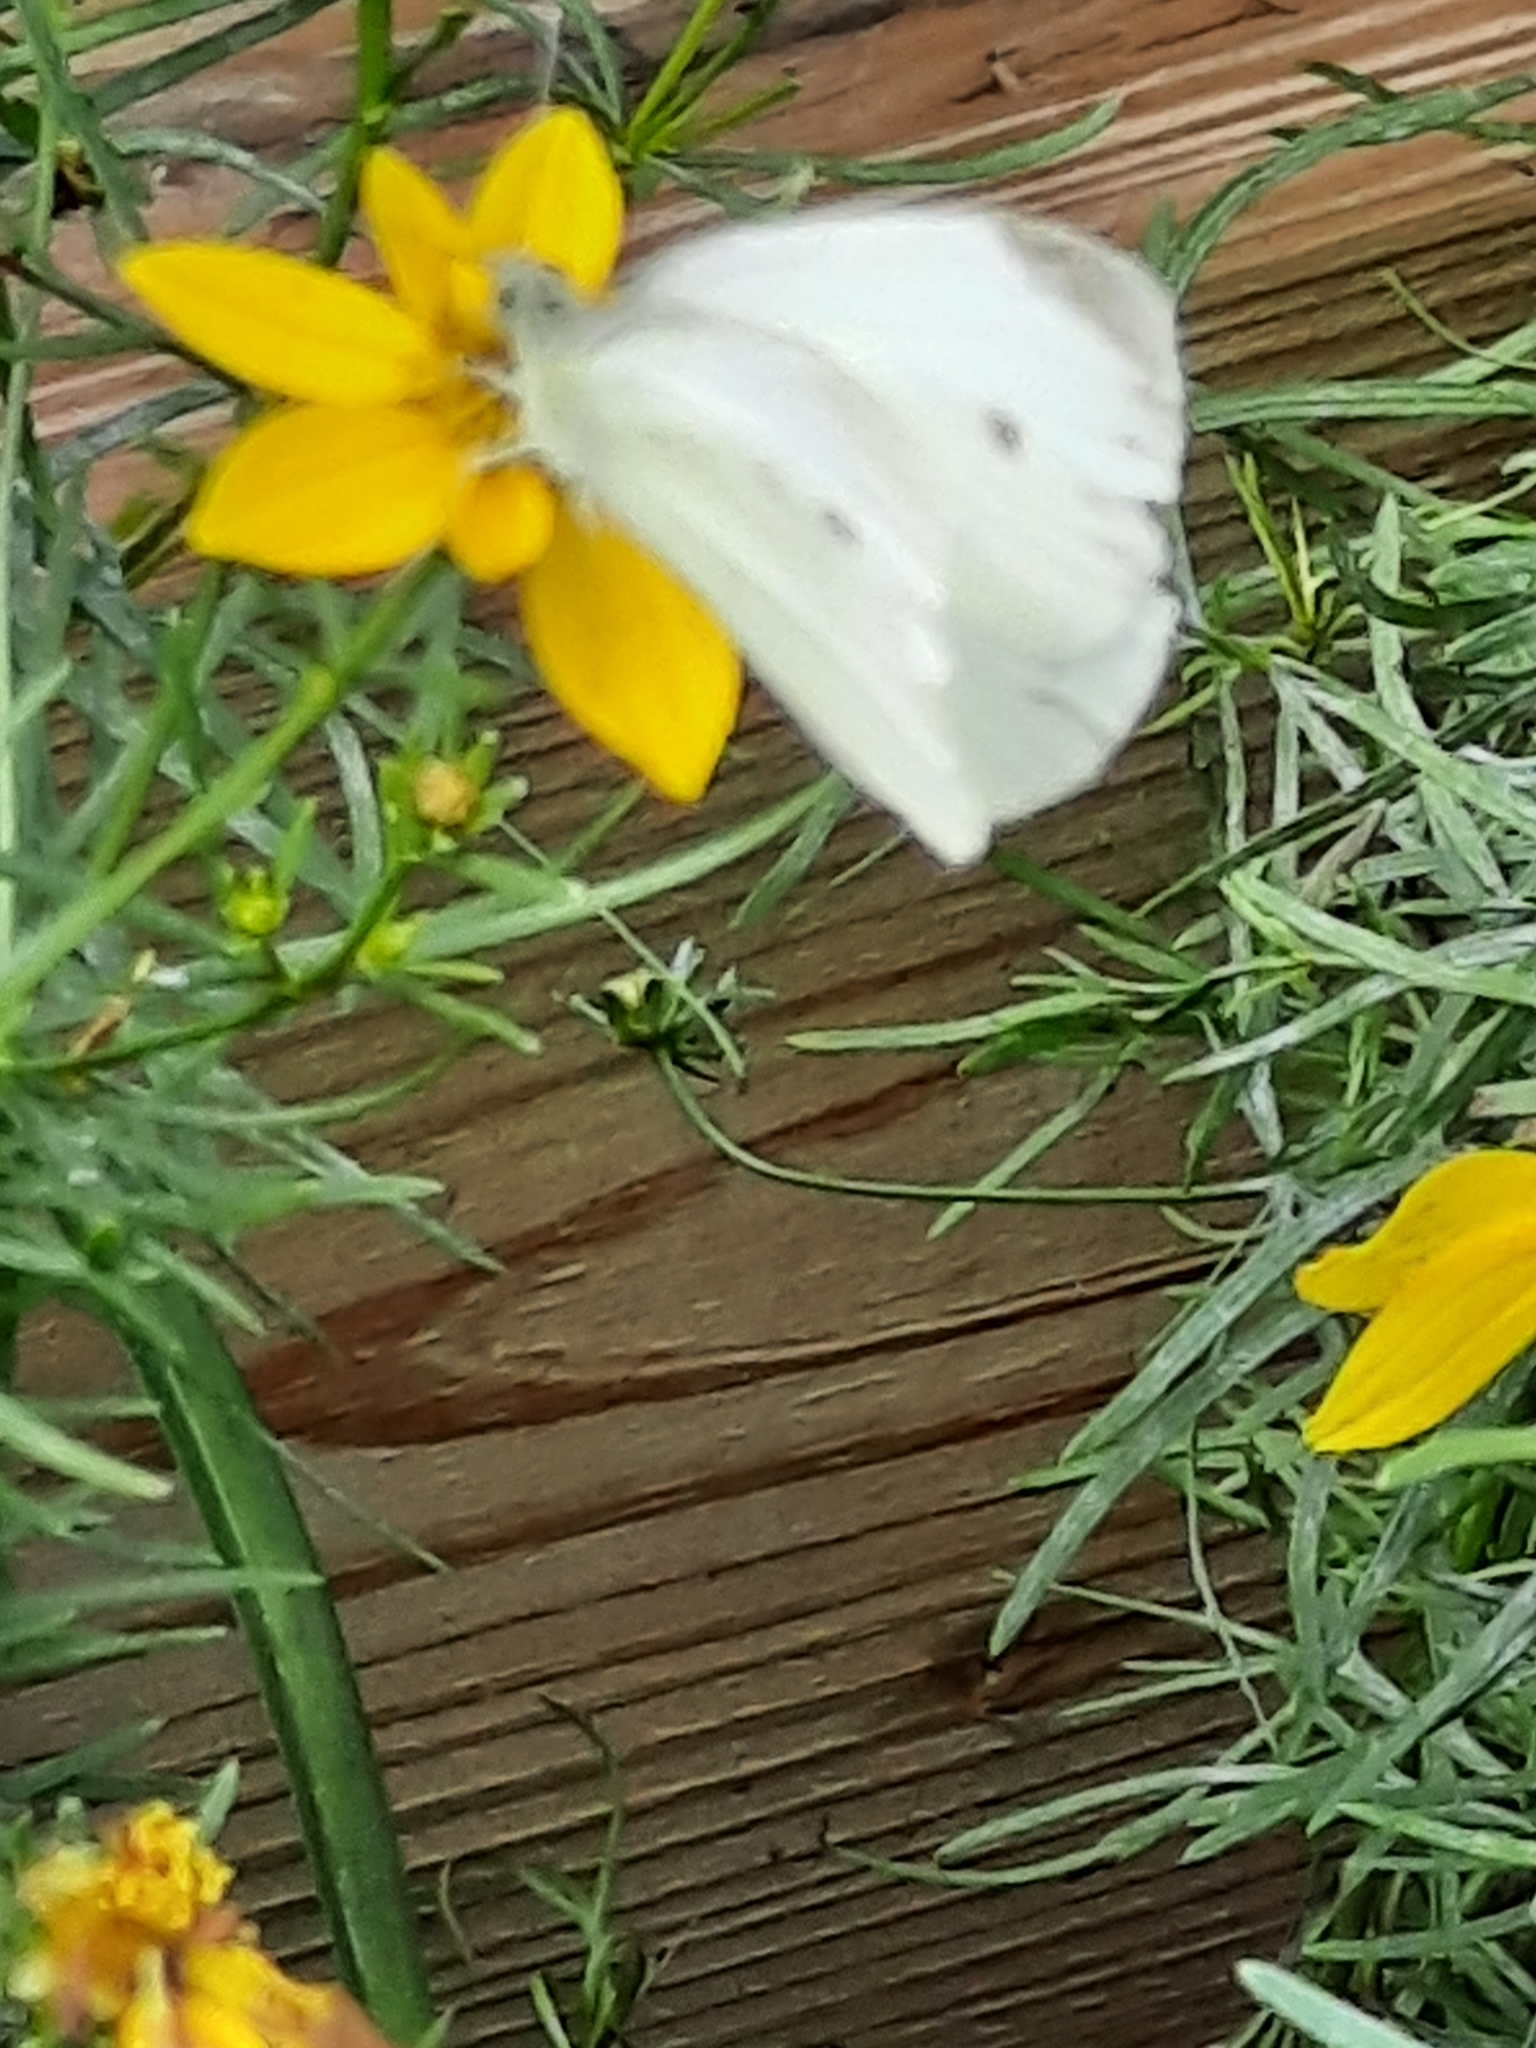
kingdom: Animalia
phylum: Arthropoda
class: Insecta
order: Lepidoptera
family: Pieridae
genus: Pieris
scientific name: Pieris rapae
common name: Small white
